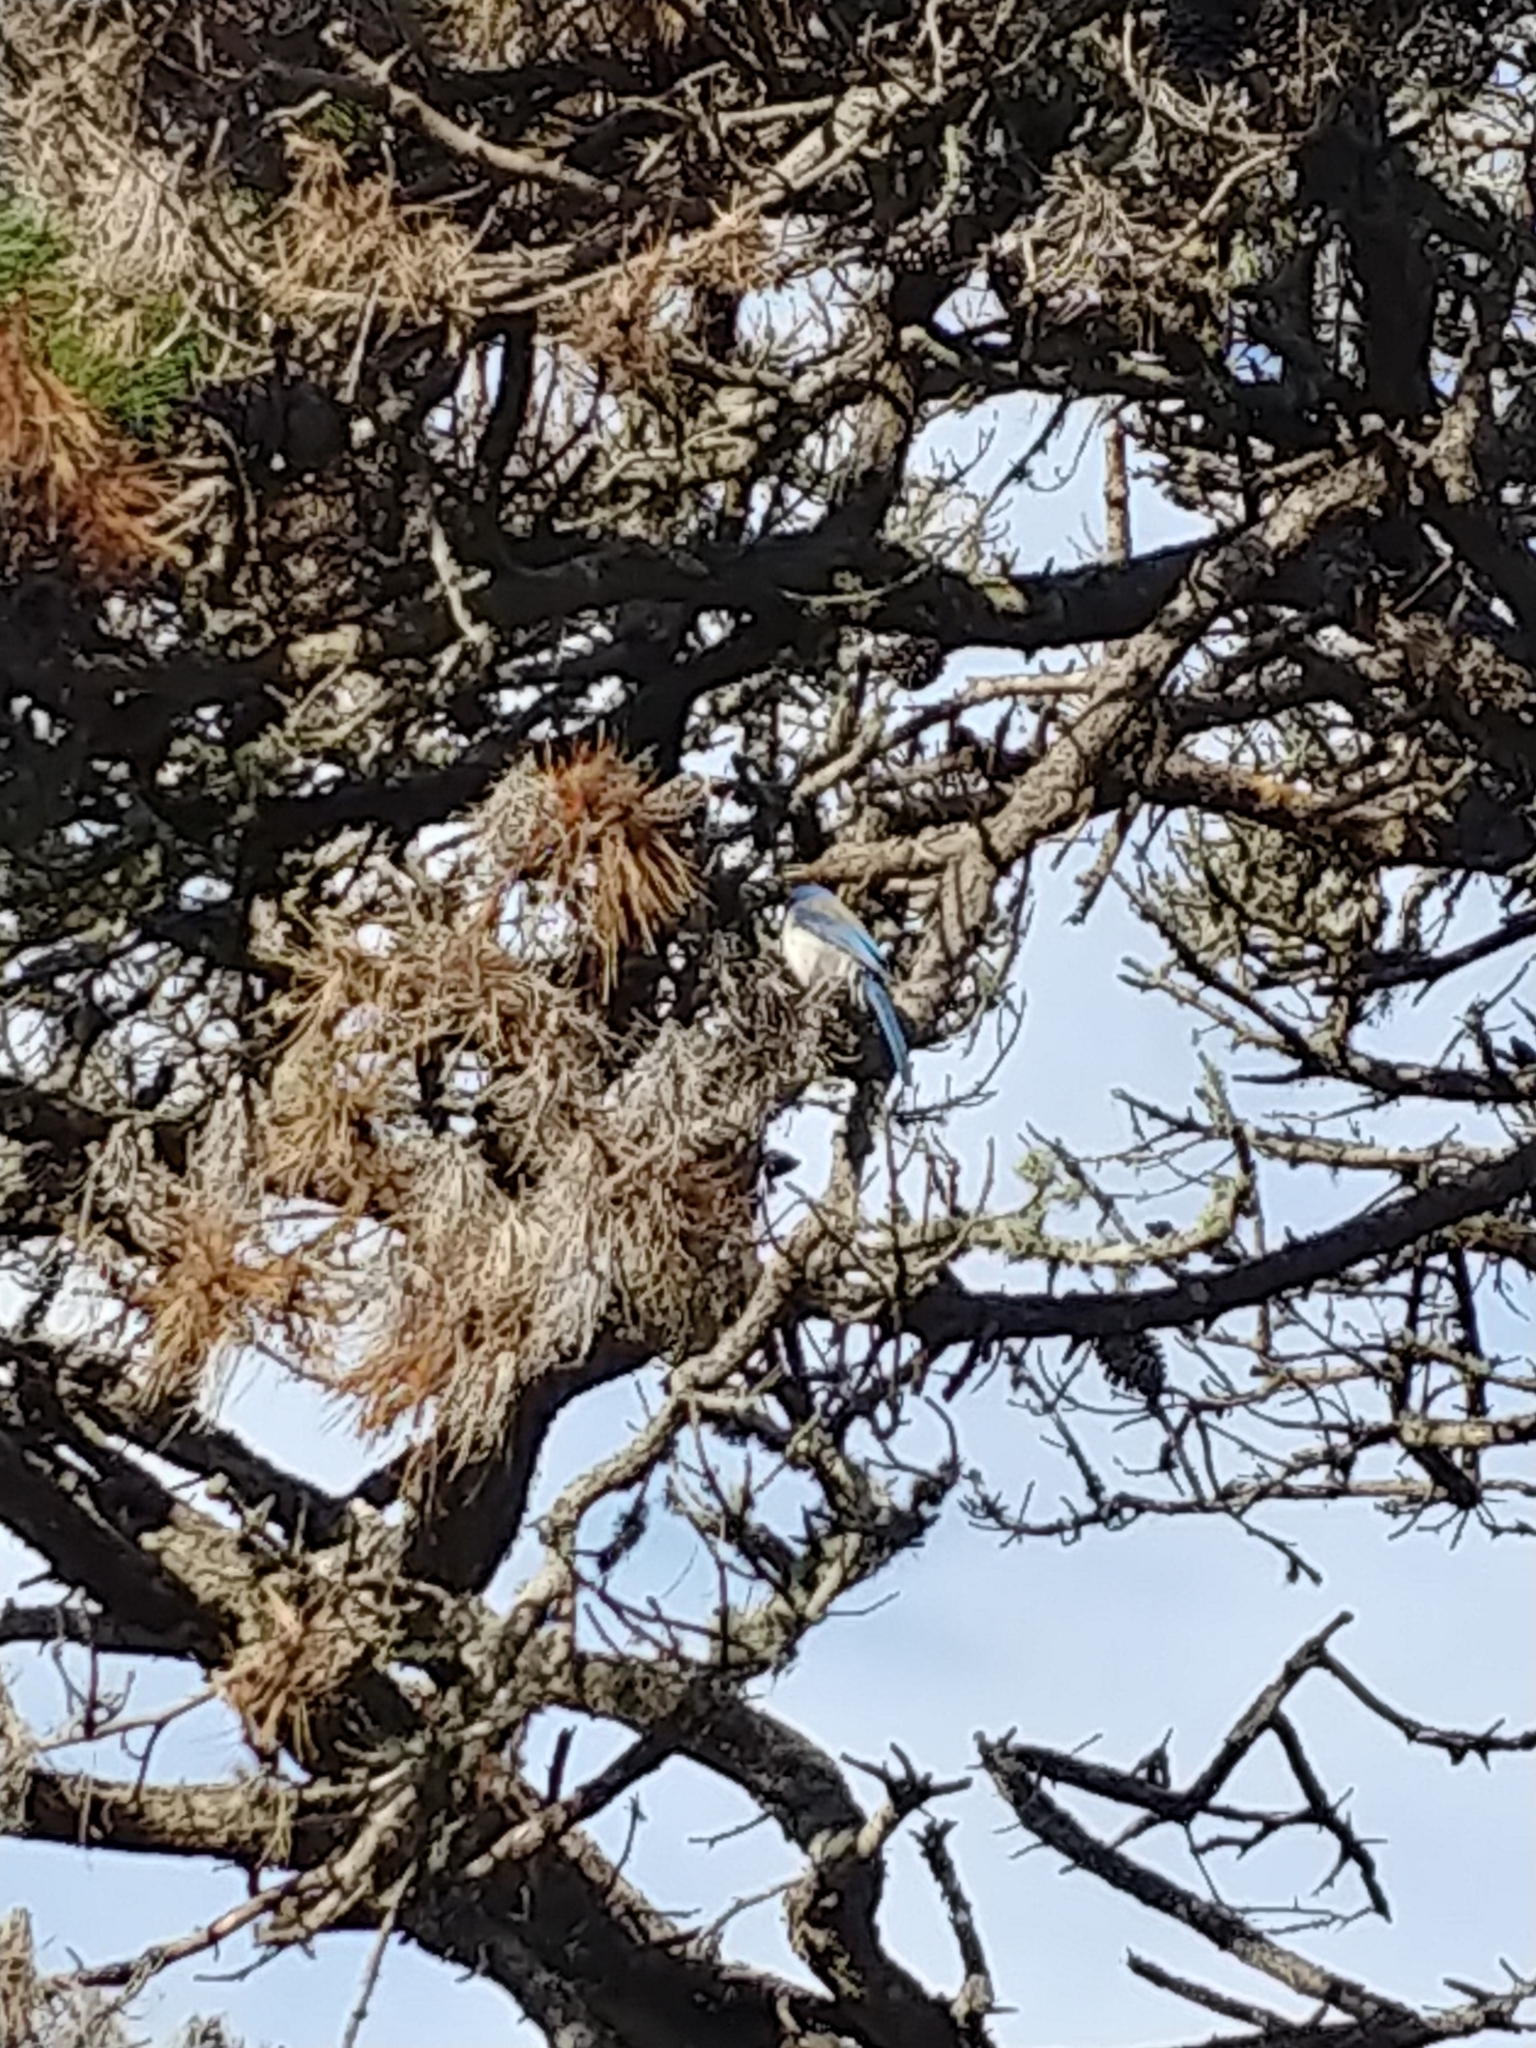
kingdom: Animalia
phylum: Chordata
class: Aves
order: Passeriformes
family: Corvidae
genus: Aphelocoma
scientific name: Aphelocoma californica
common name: California scrub-jay
